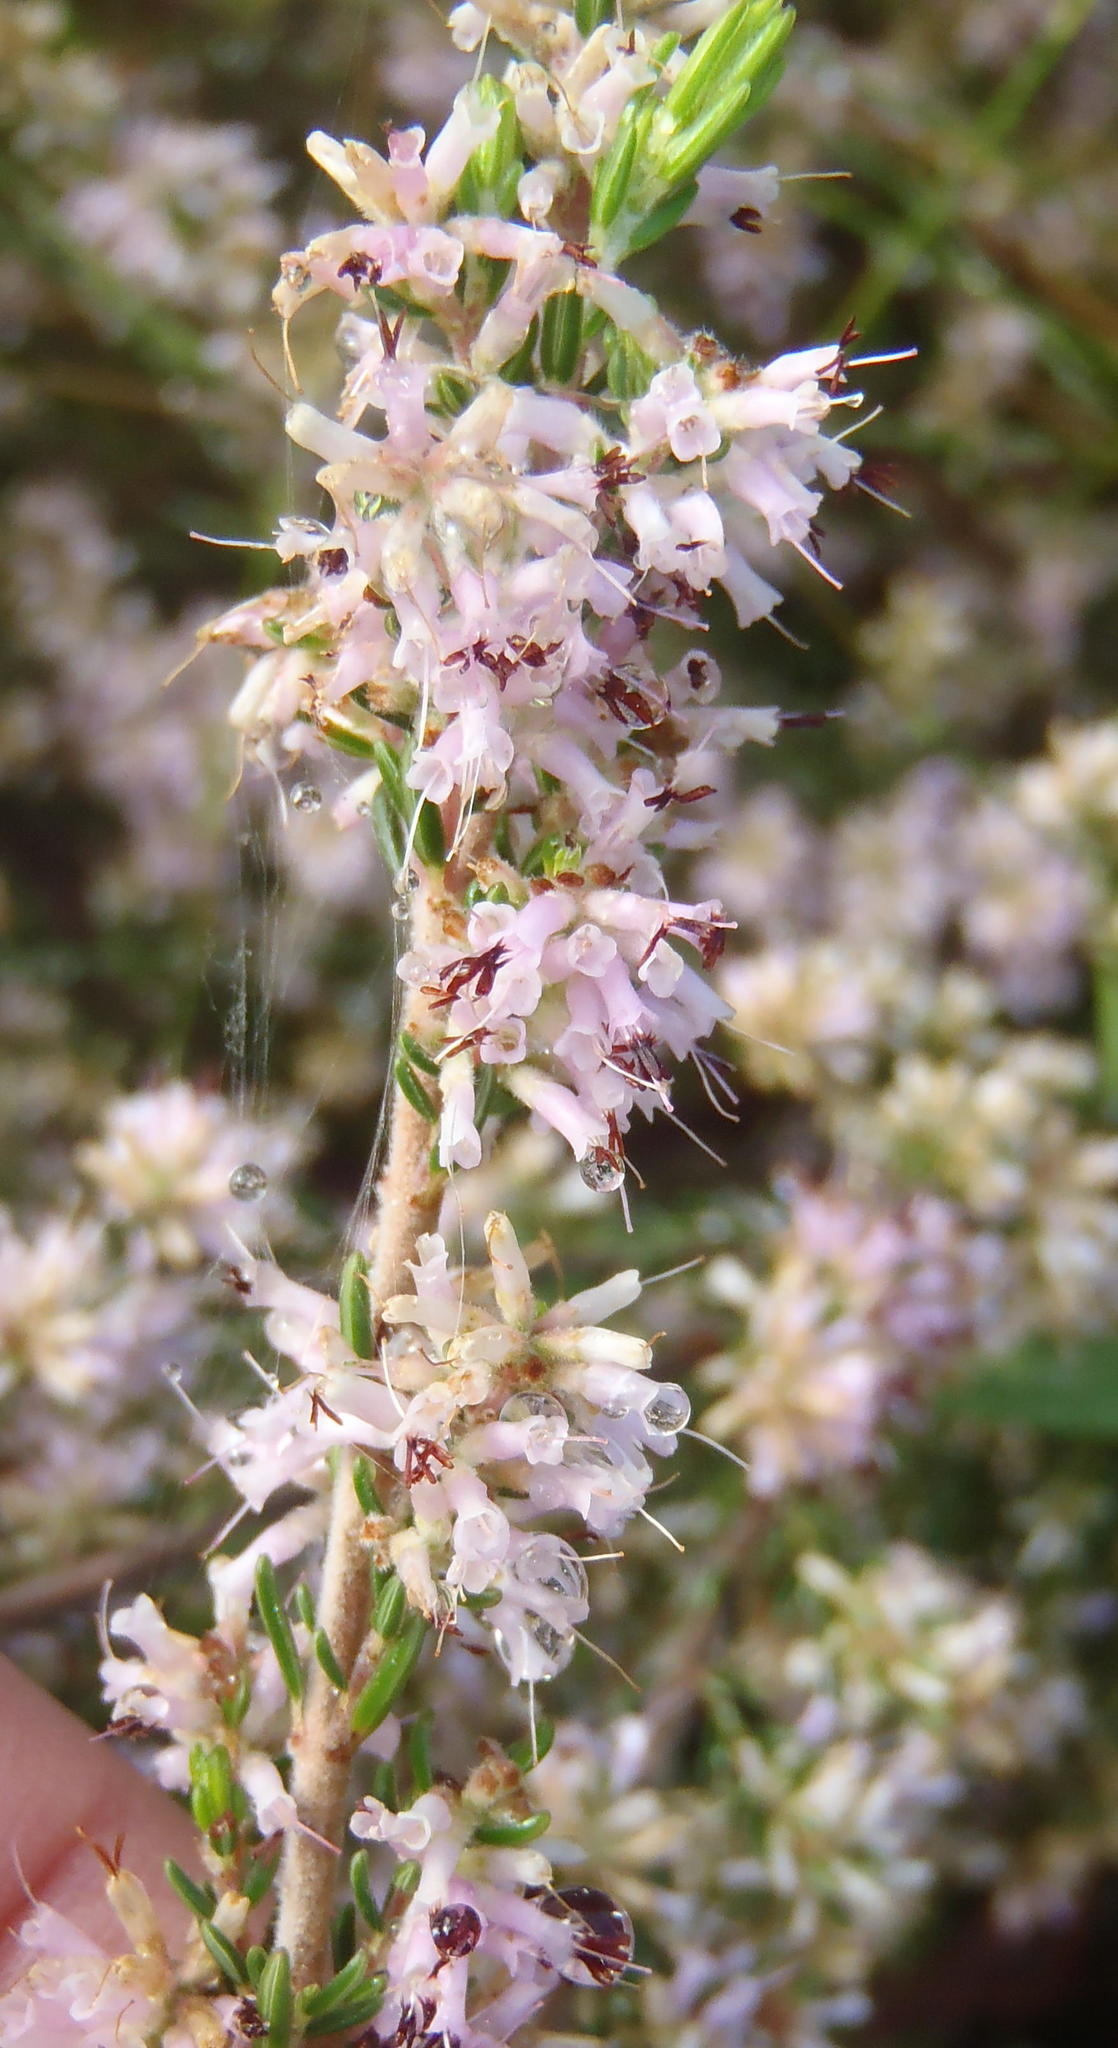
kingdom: Plantae
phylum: Tracheophyta
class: Magnoliopsida
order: Ericales
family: Ericaceae
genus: Erica
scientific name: Erica uberiflora
